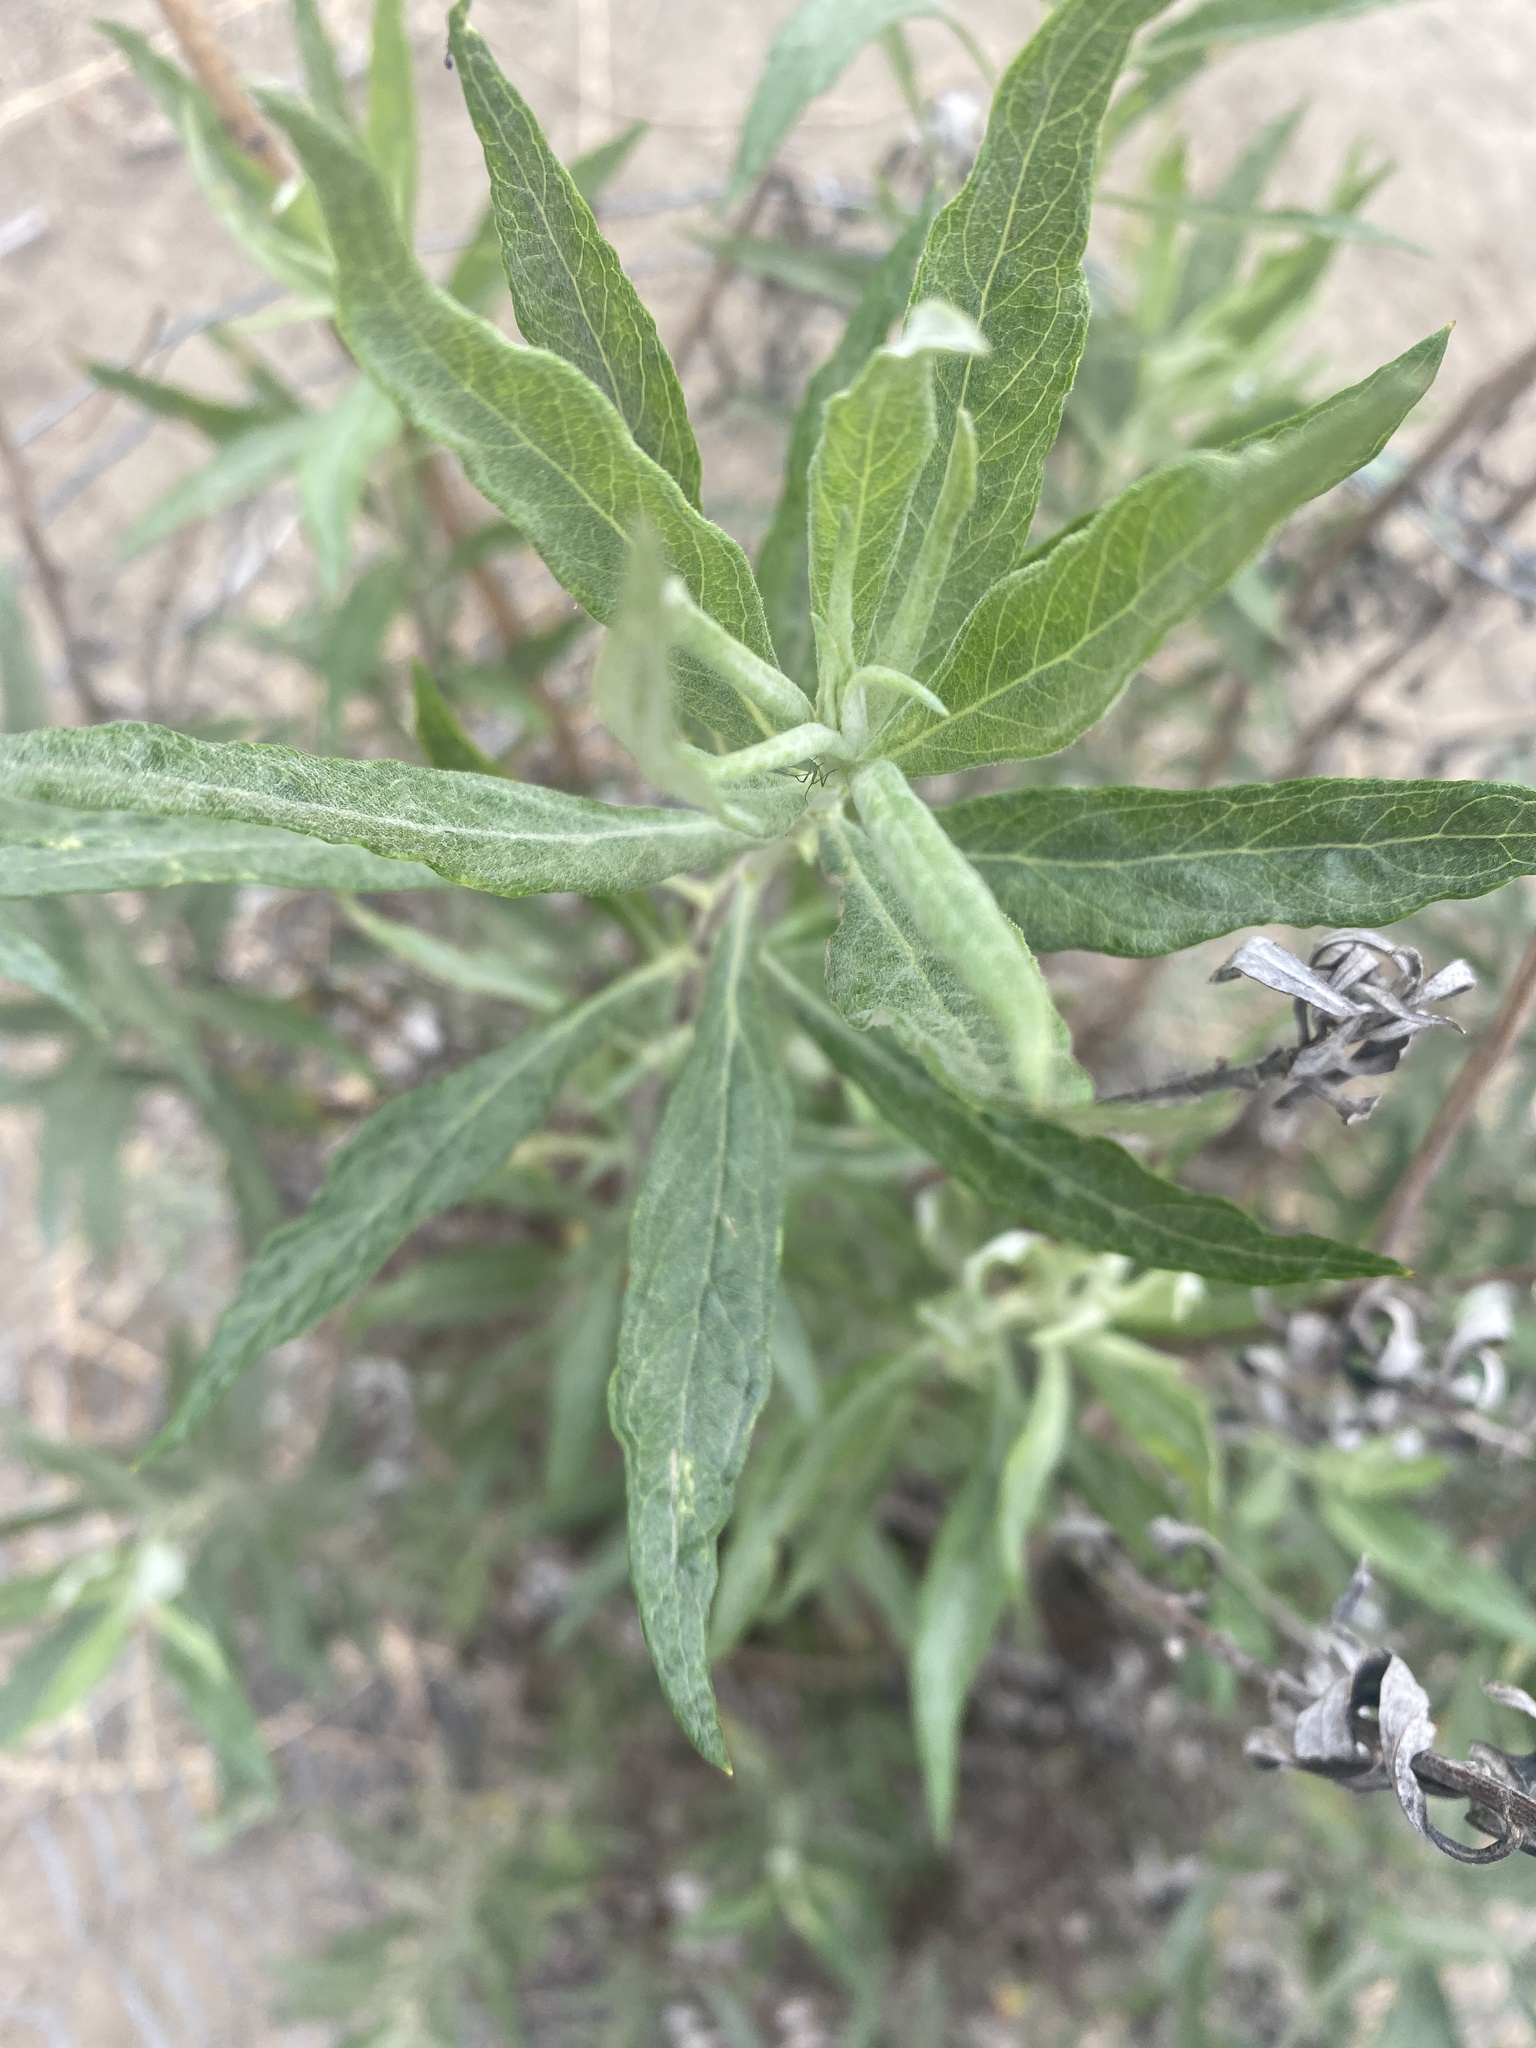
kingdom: Plantae
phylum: Tracheophyta
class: Magnoliopsida
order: Asterales
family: Asteraceae
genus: Artemisia
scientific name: Artemisia douglasiana
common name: Northwest mugwort
